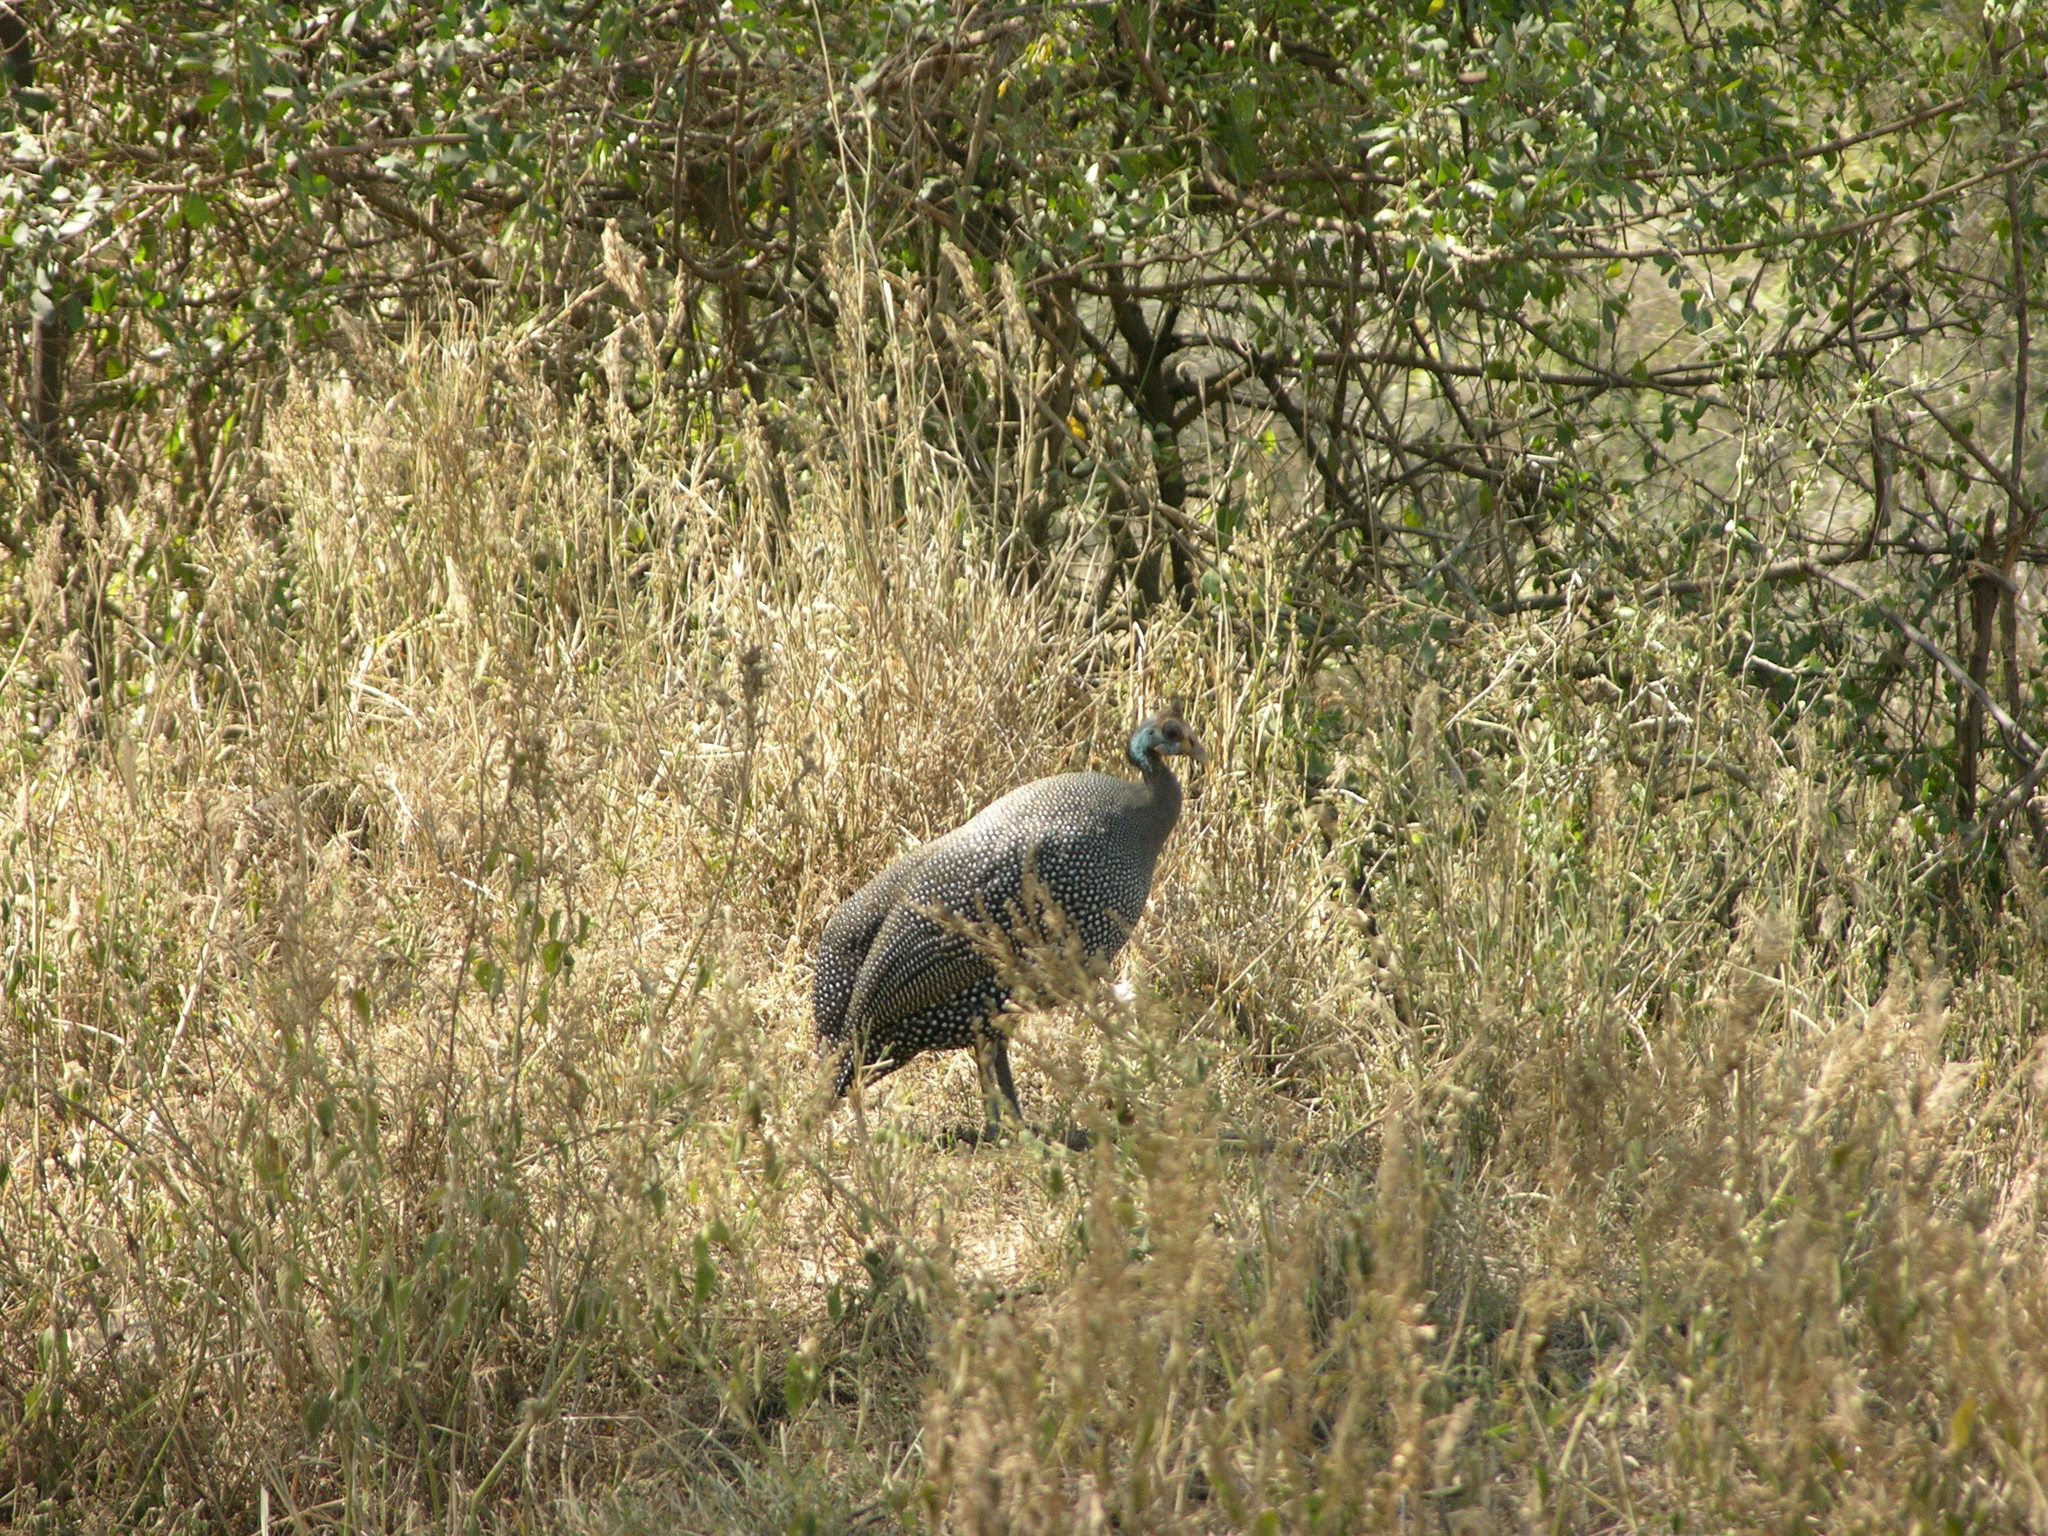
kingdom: Animalia
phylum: Chordata
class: Aves
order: Galliformes
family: Numididae
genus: Numida
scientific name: Numida meleagris
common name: Helmeted guineafowl
